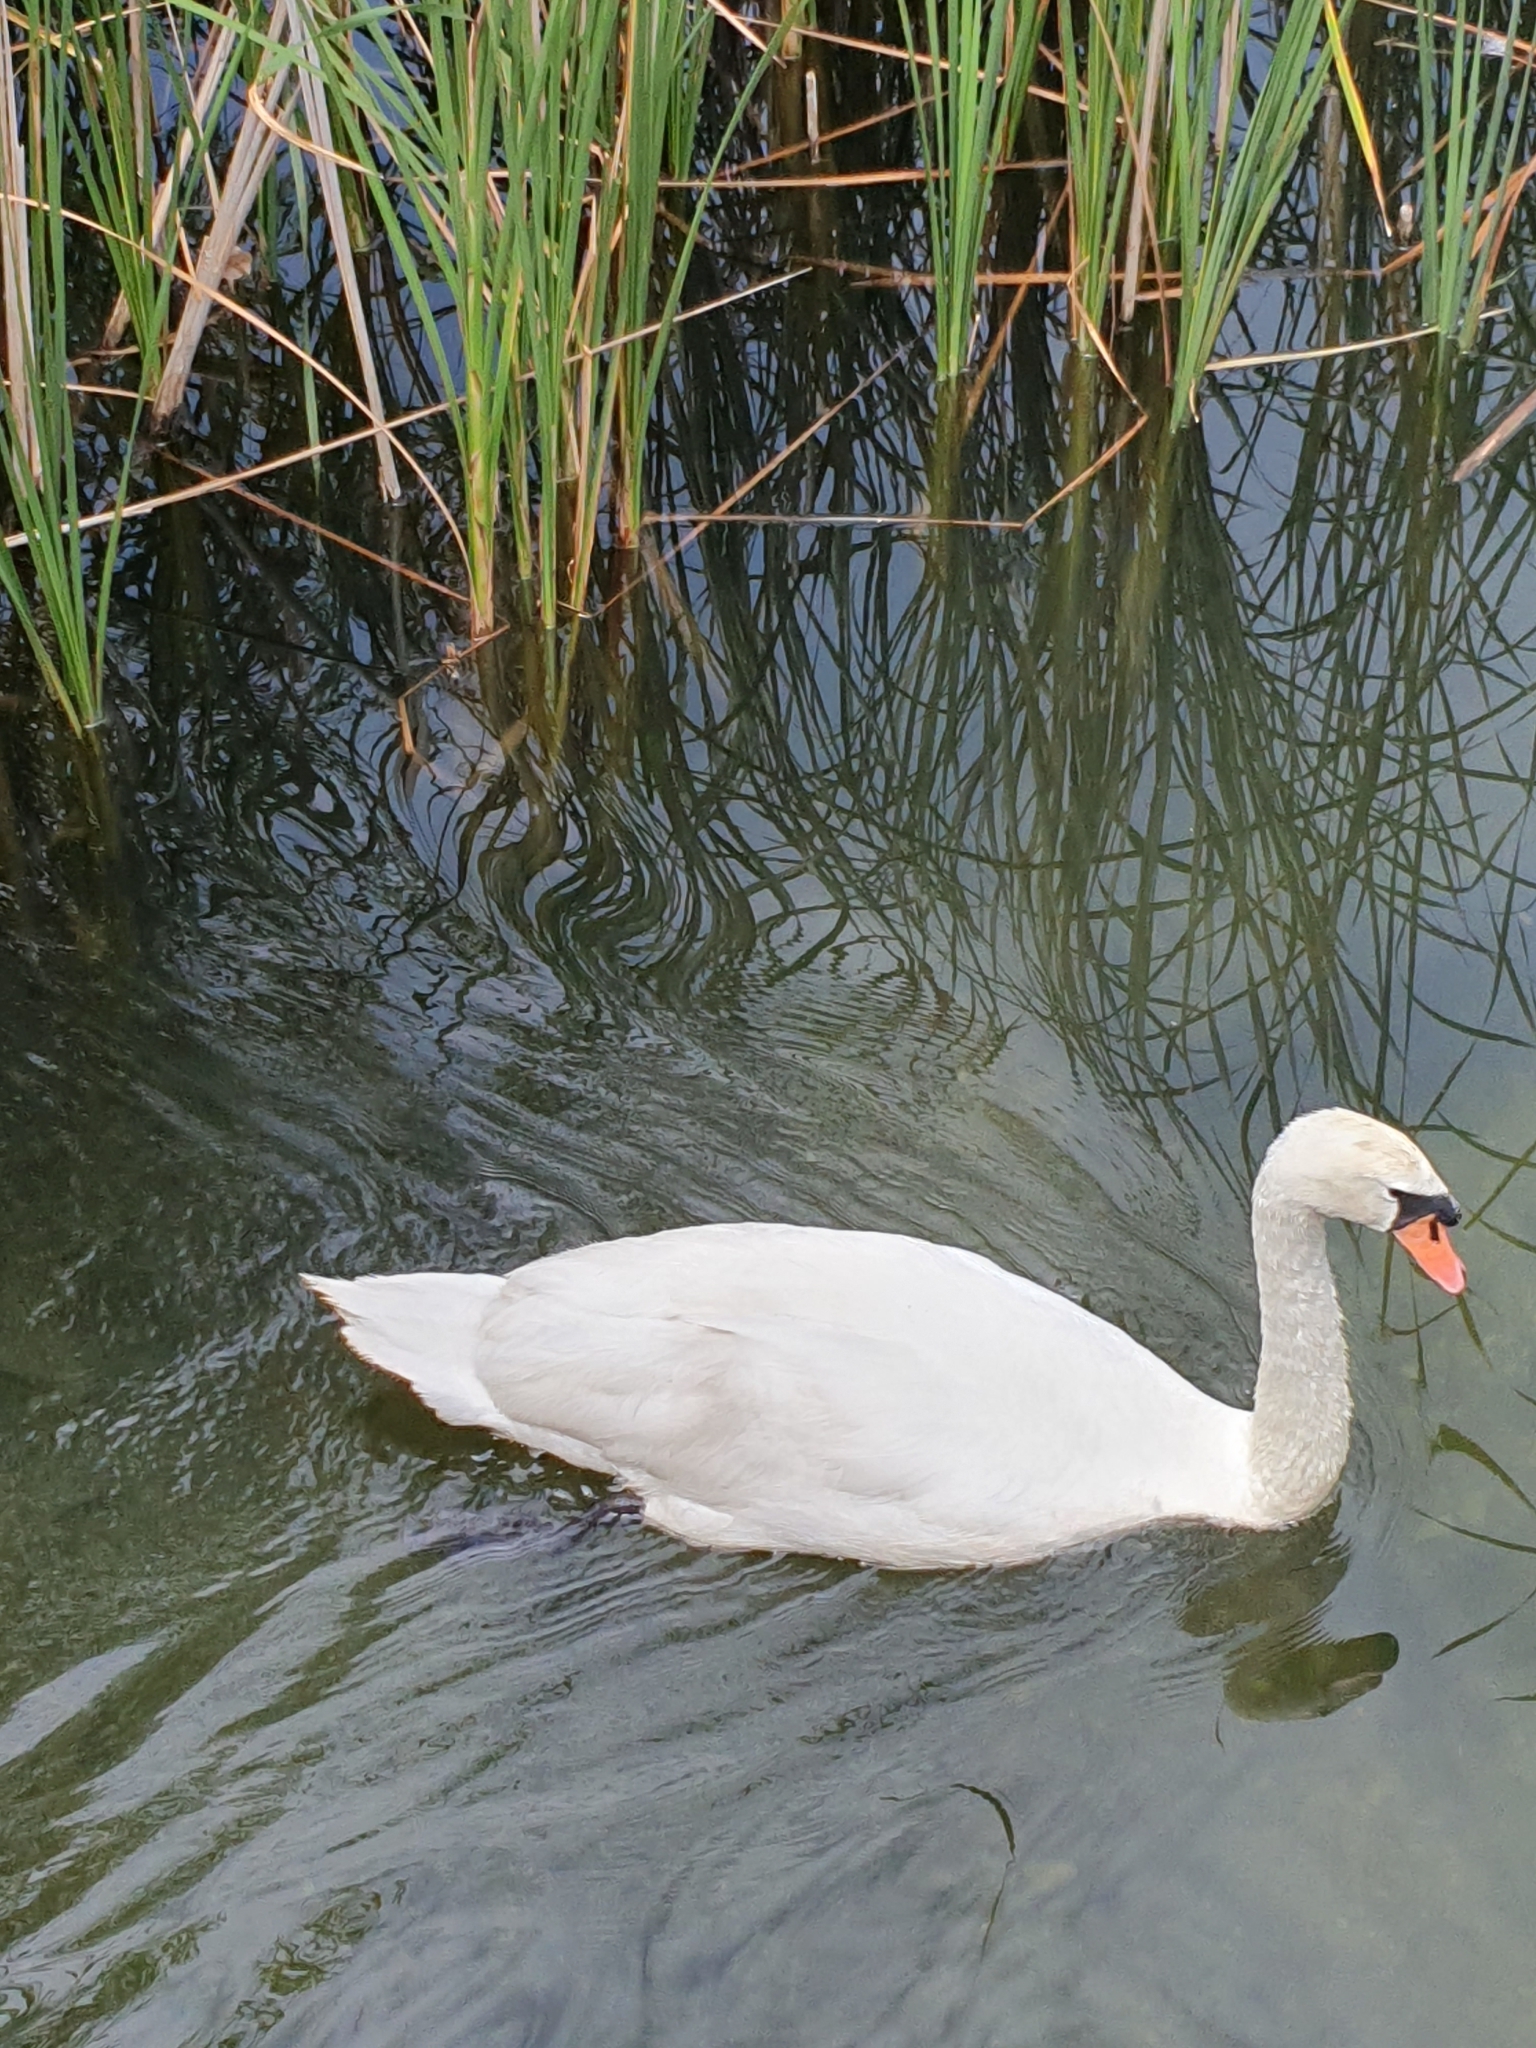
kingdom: Animalia
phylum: Chordata
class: Aves
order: Anseriformes
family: Anatidae
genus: Cygnus
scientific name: Cygnus olor
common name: Mute swan
